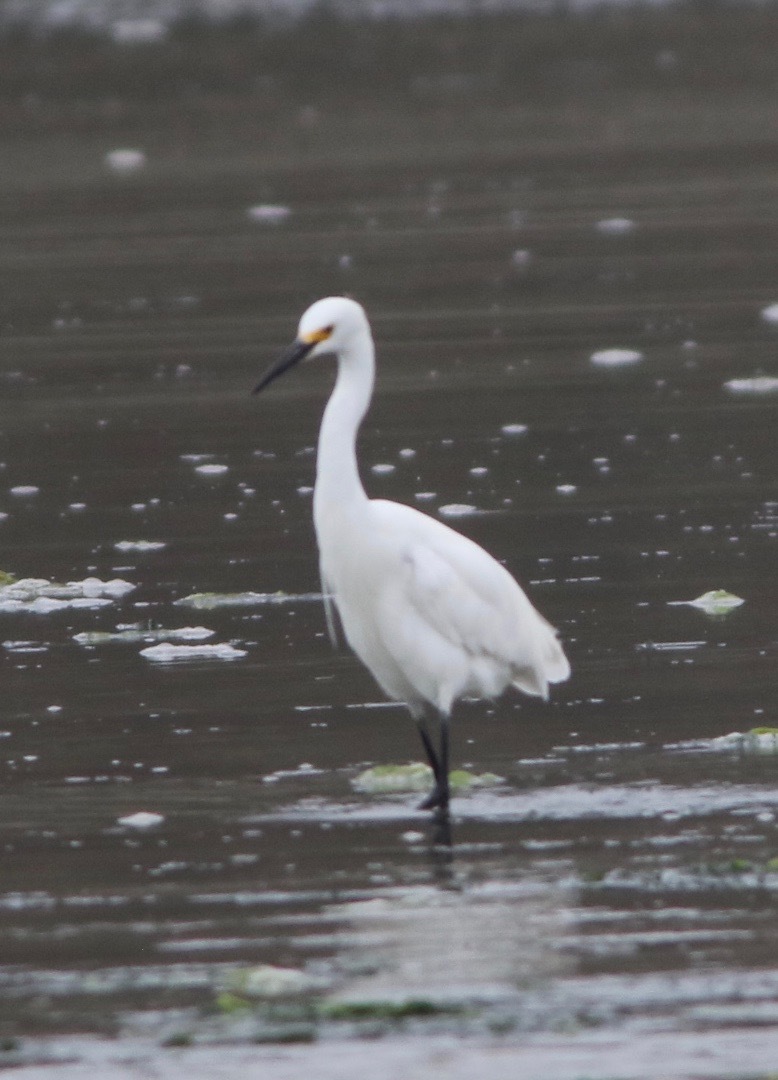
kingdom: Animalia
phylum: Chordata
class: Aves
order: Pelecaniformes
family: Ardeidae
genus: Egretta
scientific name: Egretta thula
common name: Snowy egret
